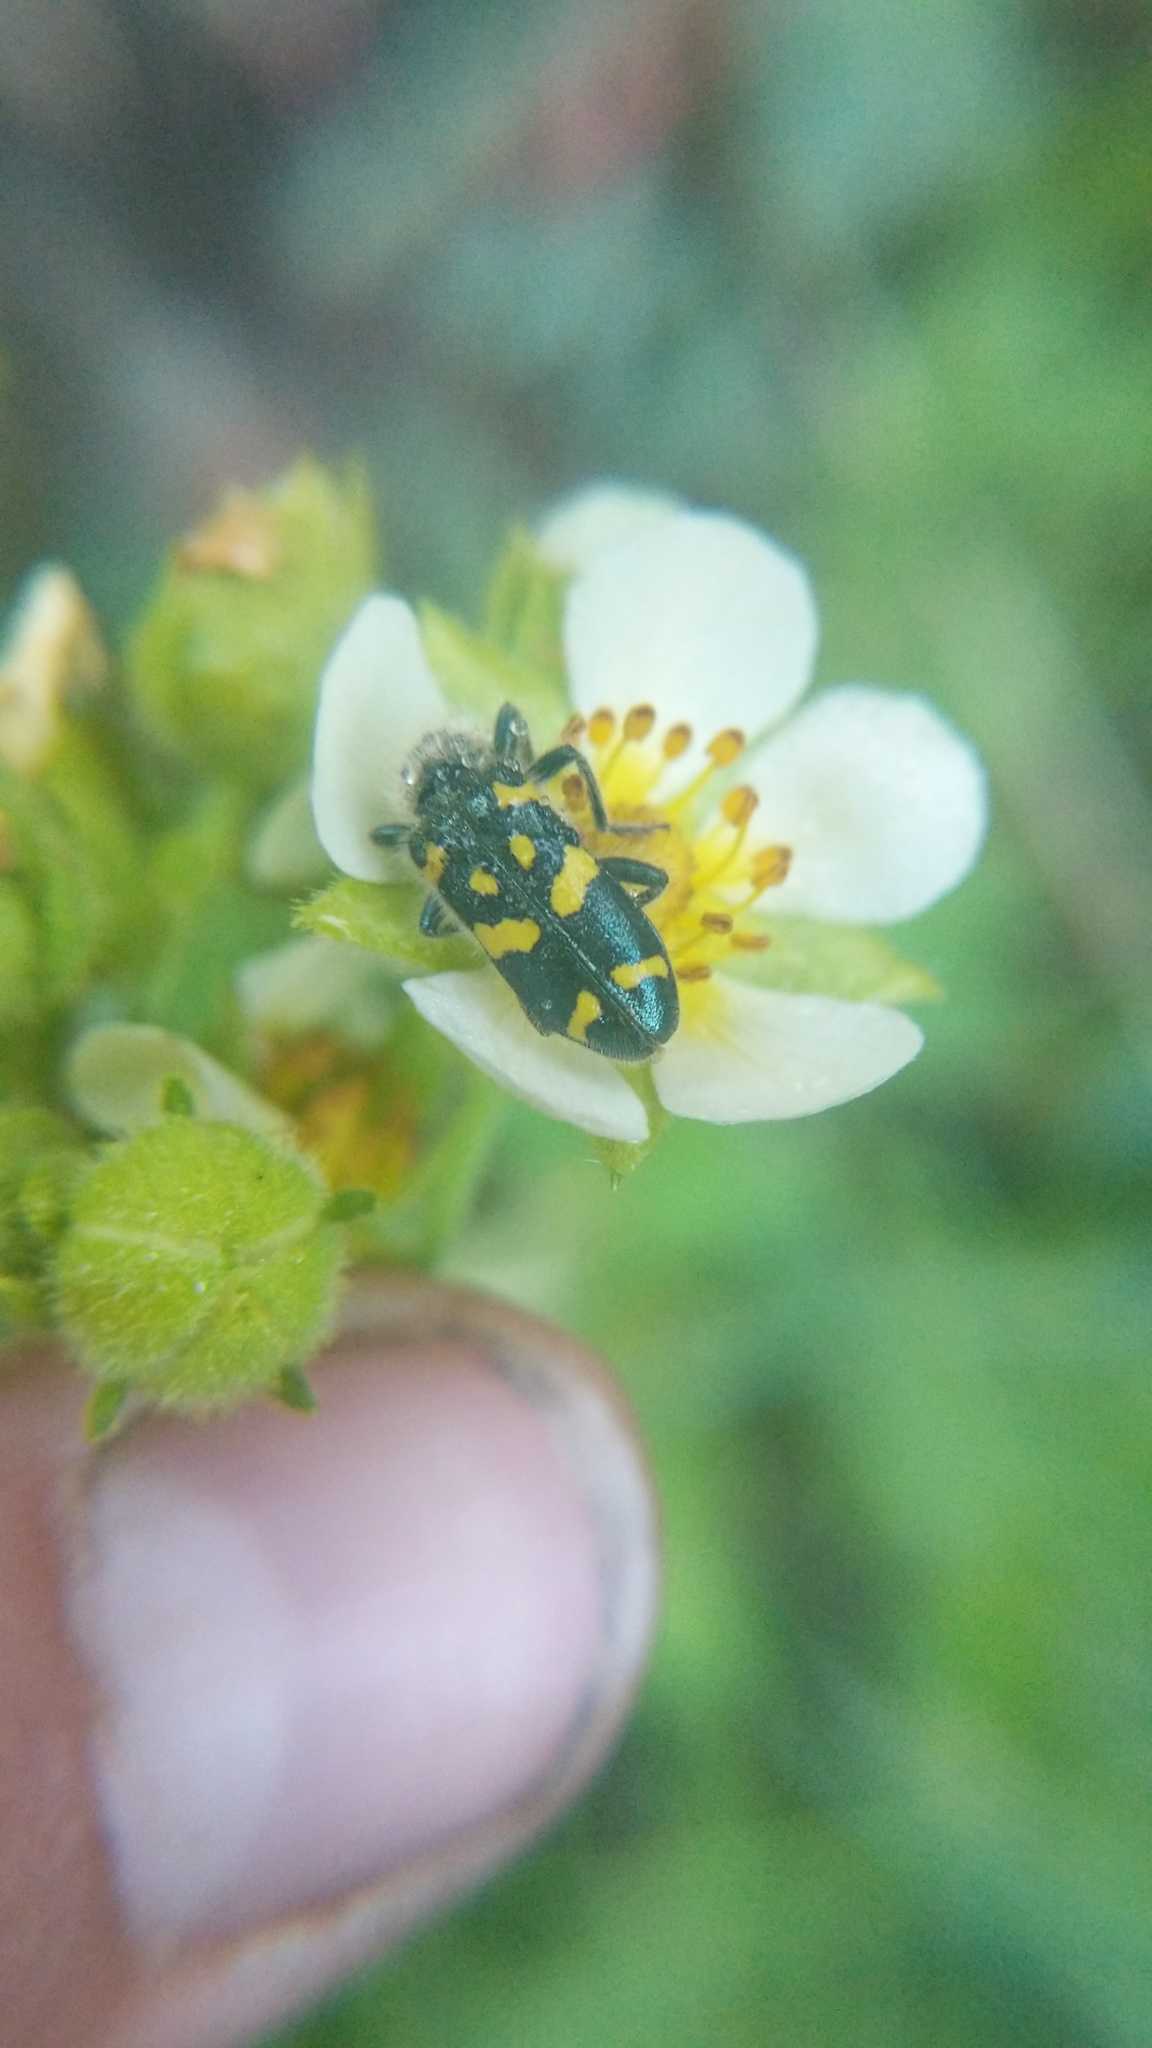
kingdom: Animalia
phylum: Arthropoda
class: Insecta
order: Coleoptera
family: Cleridae
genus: Trichodes
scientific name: Trichodes ornatus
